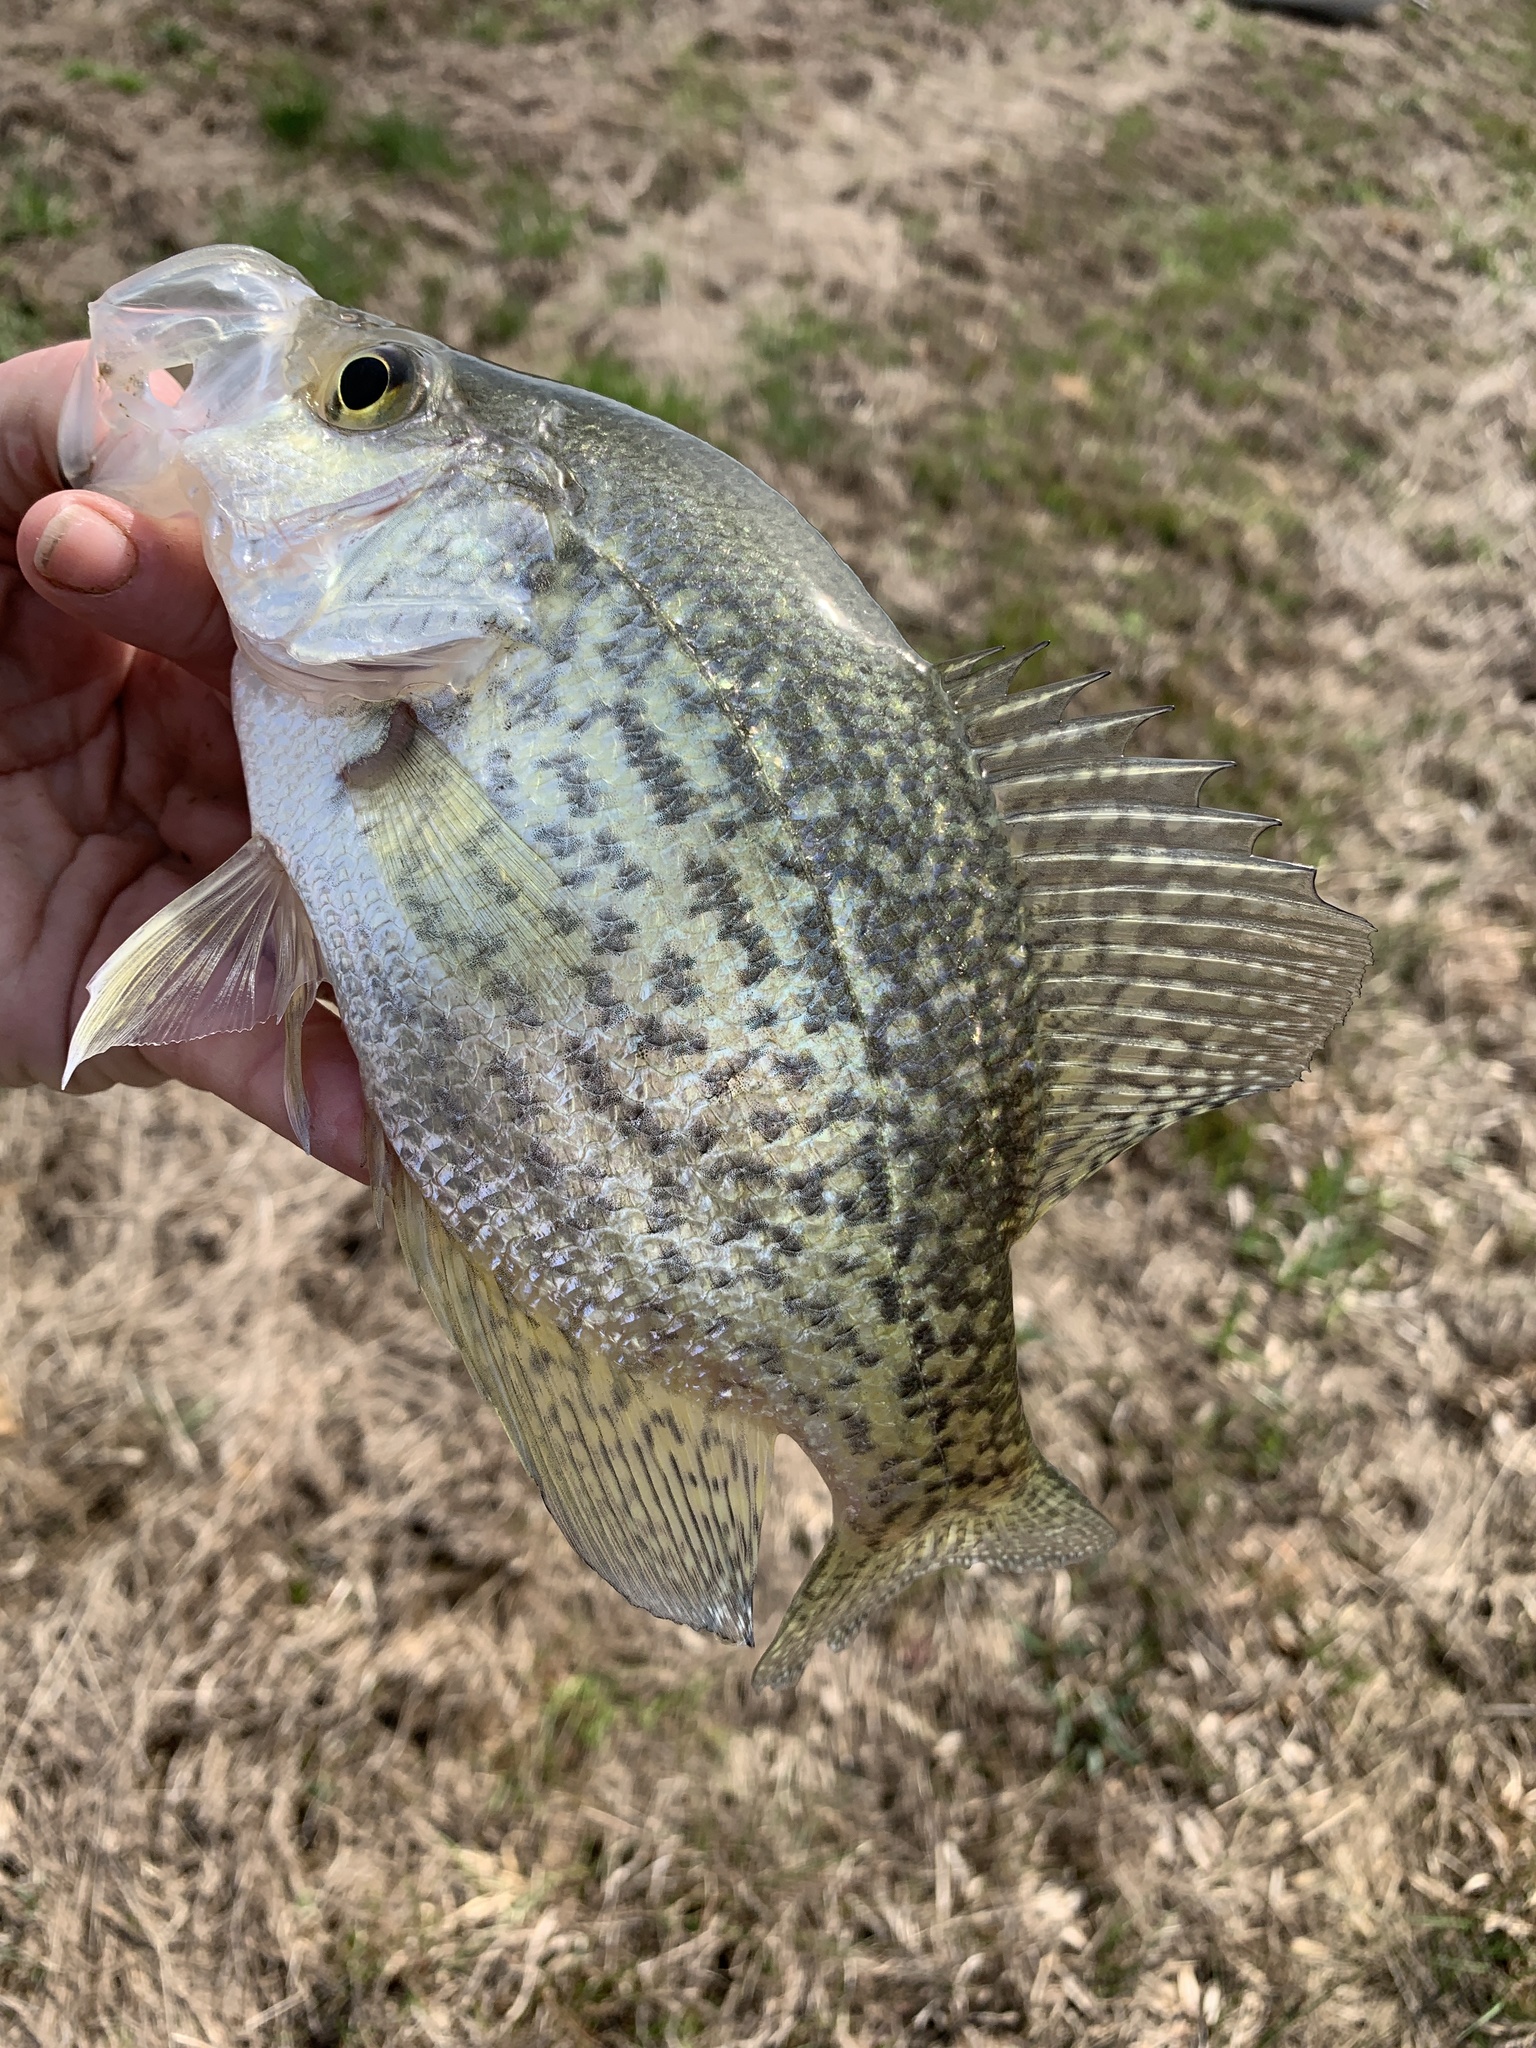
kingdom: Animalia
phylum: Chordata
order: Perciformes
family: Centrarchidae
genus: Pomoxis
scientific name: Pomoxis nigromaculatus
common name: Black crappie
